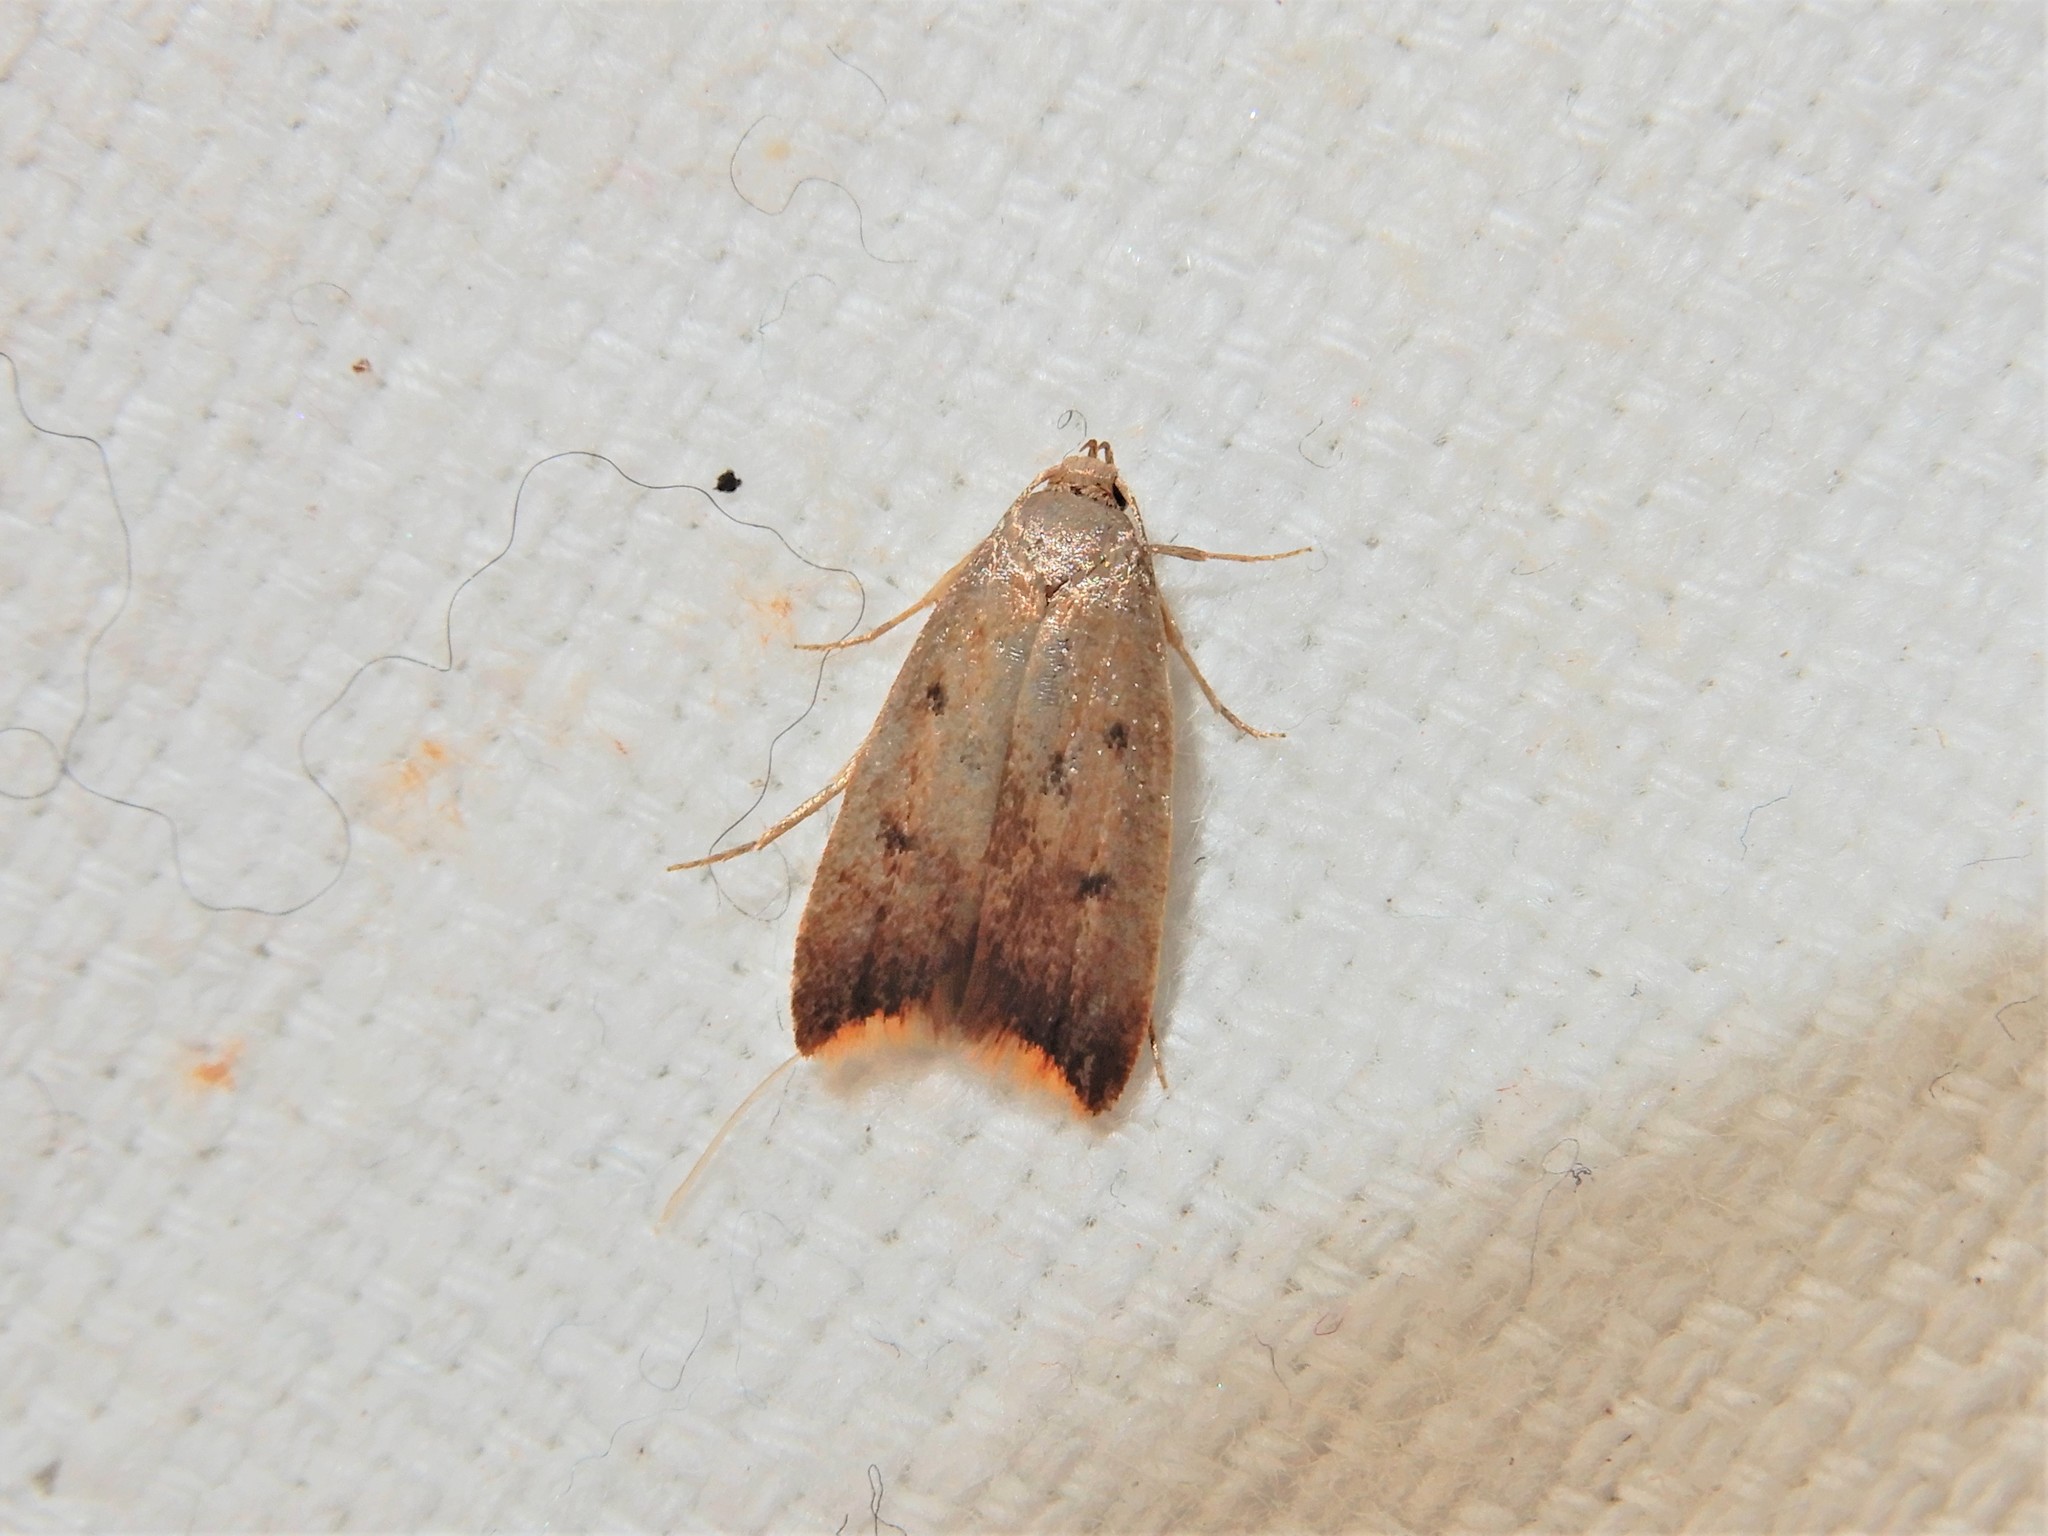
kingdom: Animalia
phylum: Arthropoda
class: Insecta
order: Lepidoptera
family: Oecophoridae
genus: Tachystola
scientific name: Tachystola acroxantha
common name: Ruddy streak
